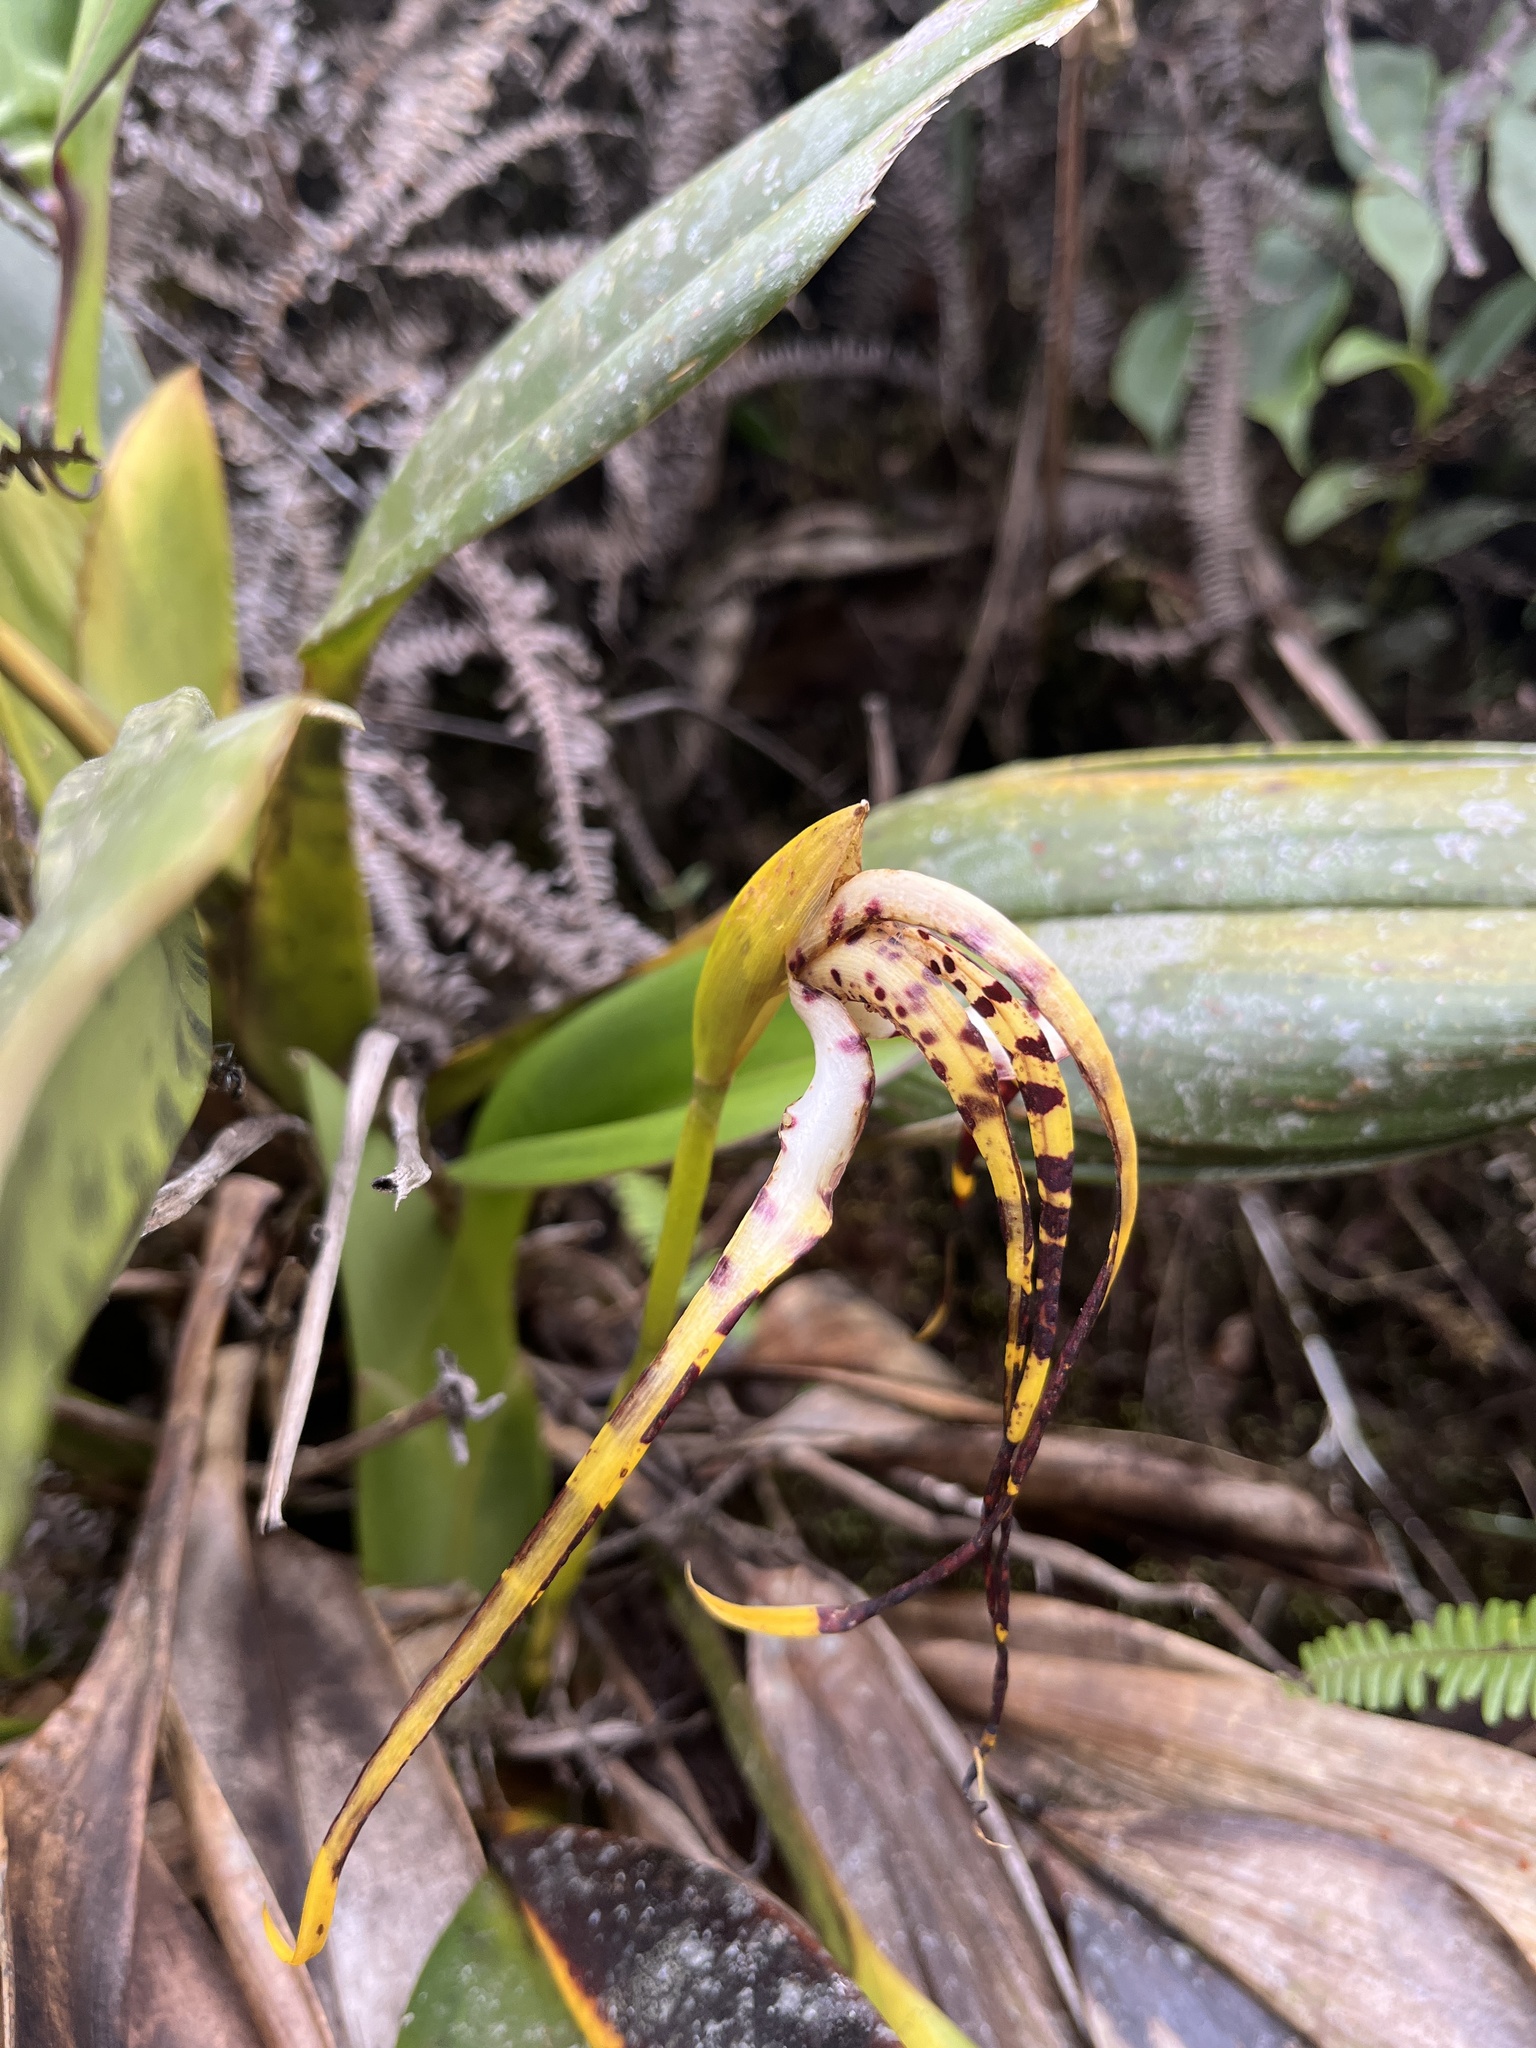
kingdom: Plantae
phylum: Tracheophyta
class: Liliopsida
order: Asparagales
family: Orchidaceae
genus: Maxillaria
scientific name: Maxillaria speciosa
